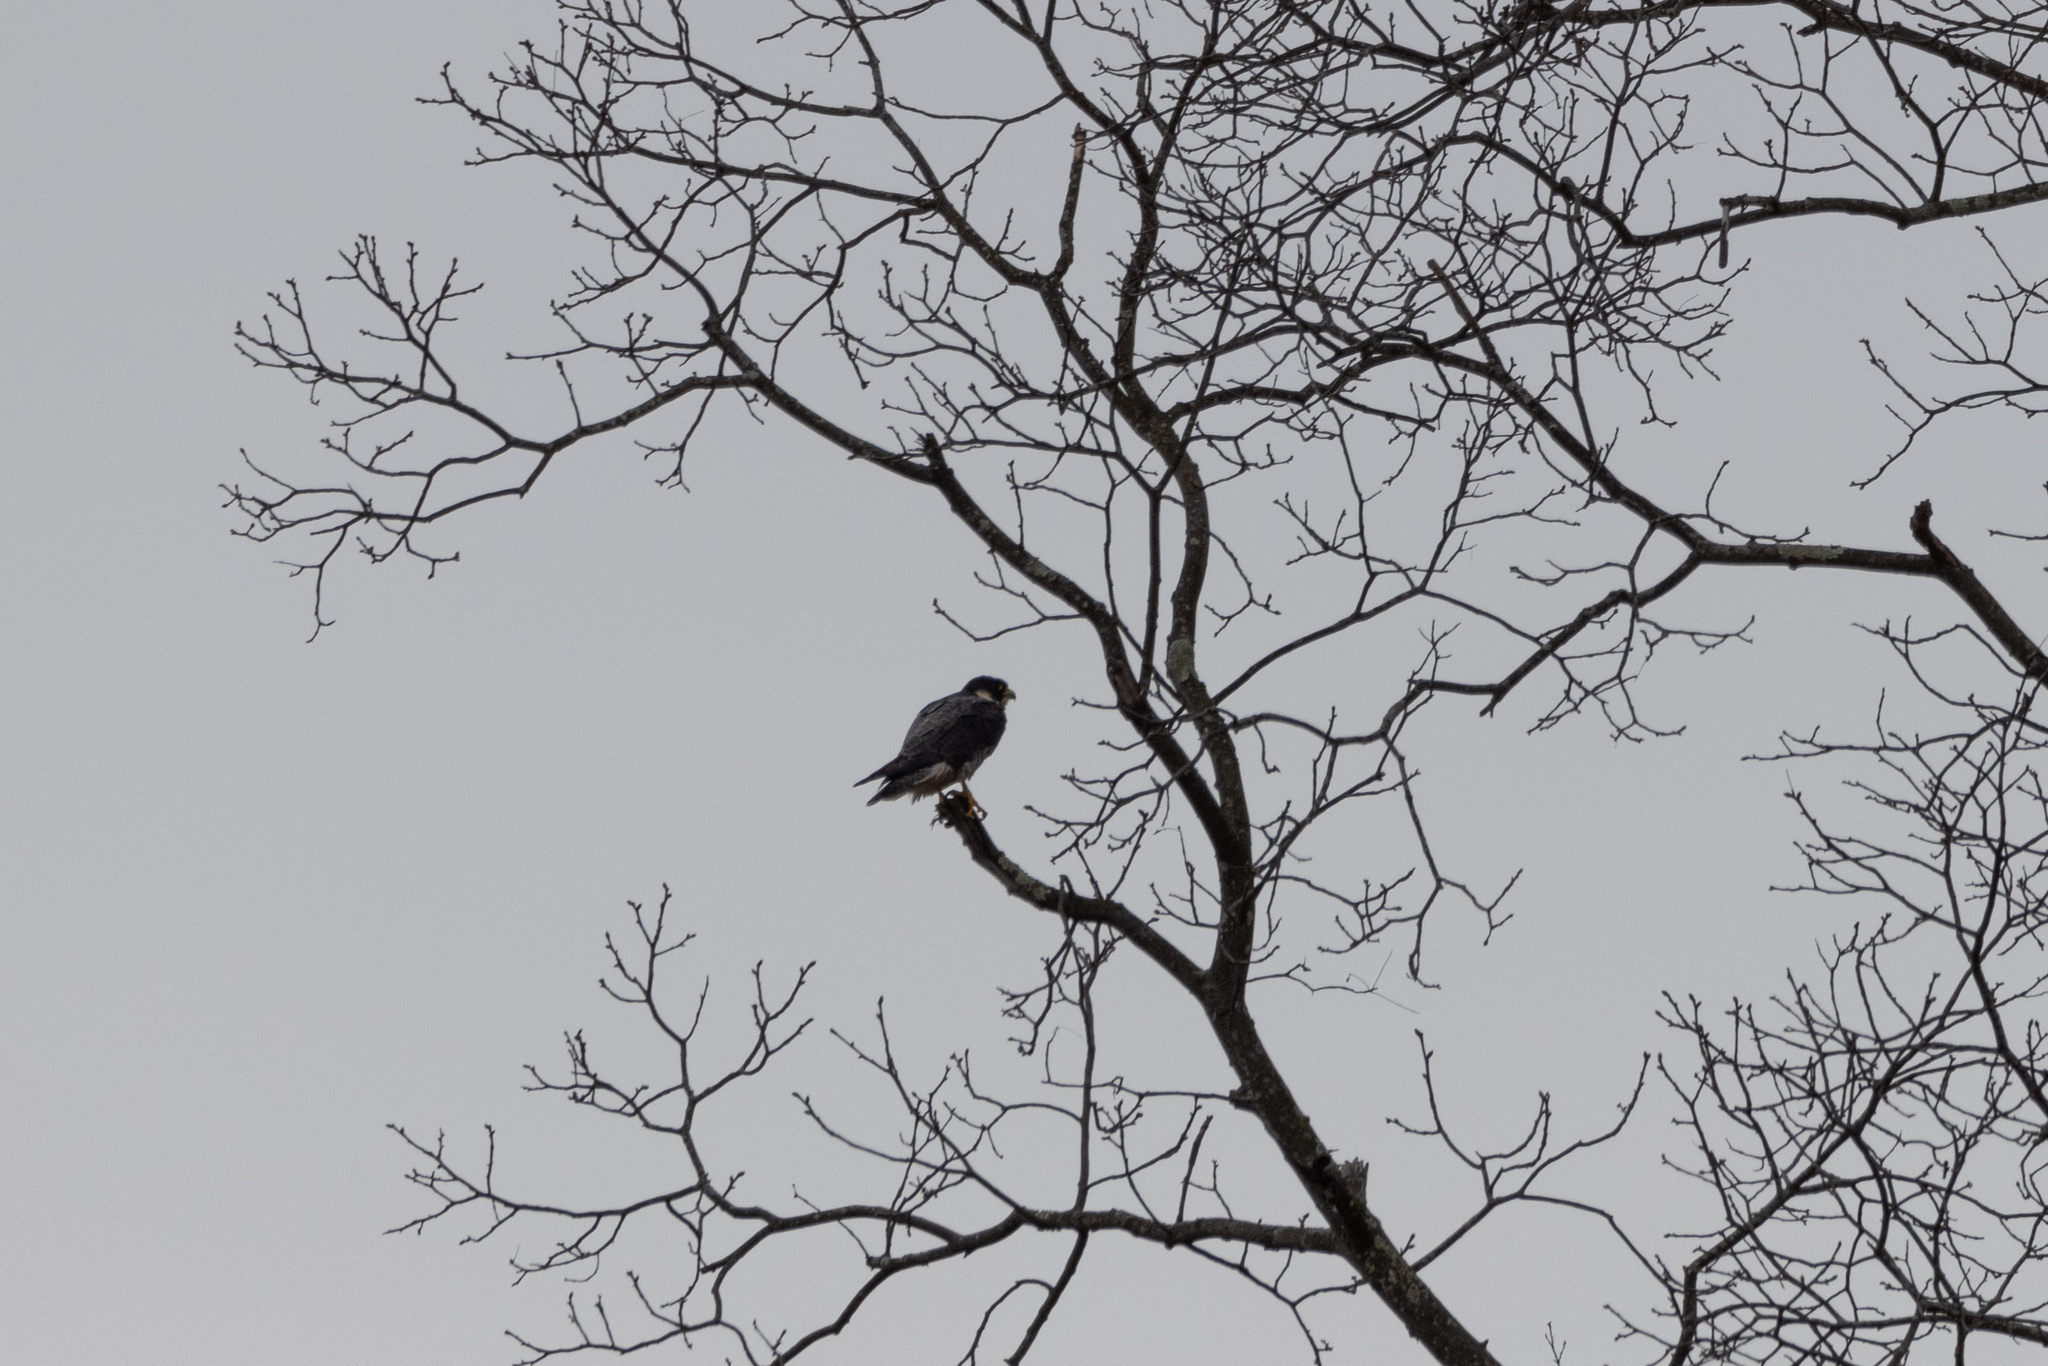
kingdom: Animalia
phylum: Chordata
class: Aves
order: Falconiformes
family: Falconidae
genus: Falco
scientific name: Falco peregrinus
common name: Peregrine falcon
